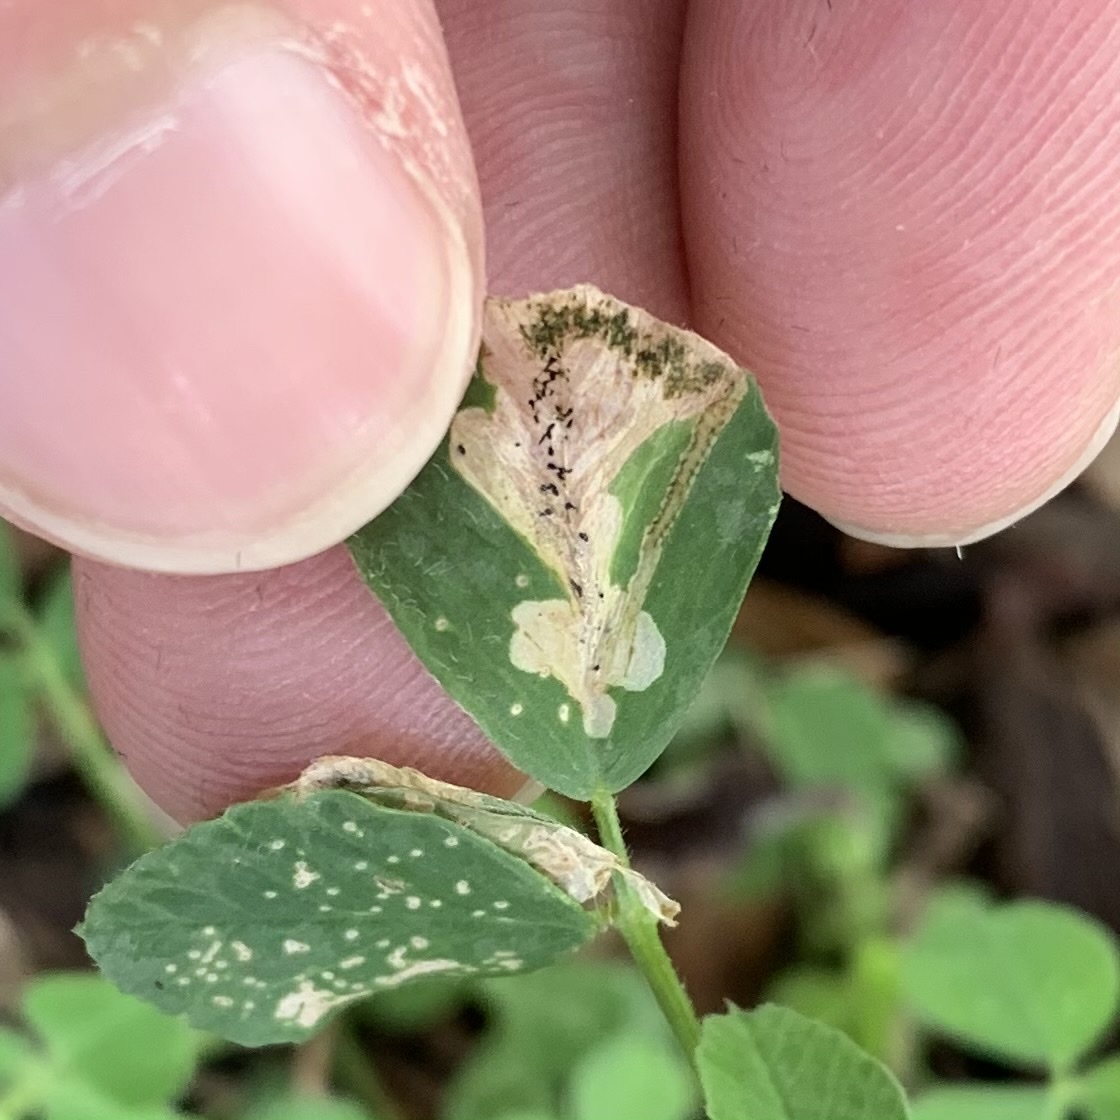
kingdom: Animalia
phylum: Arthropoda
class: Insecta
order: Diptera
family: Agromyzidae
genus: Agromyza
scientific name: Agromyza frontella
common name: Alfalfa blotch leafminer
